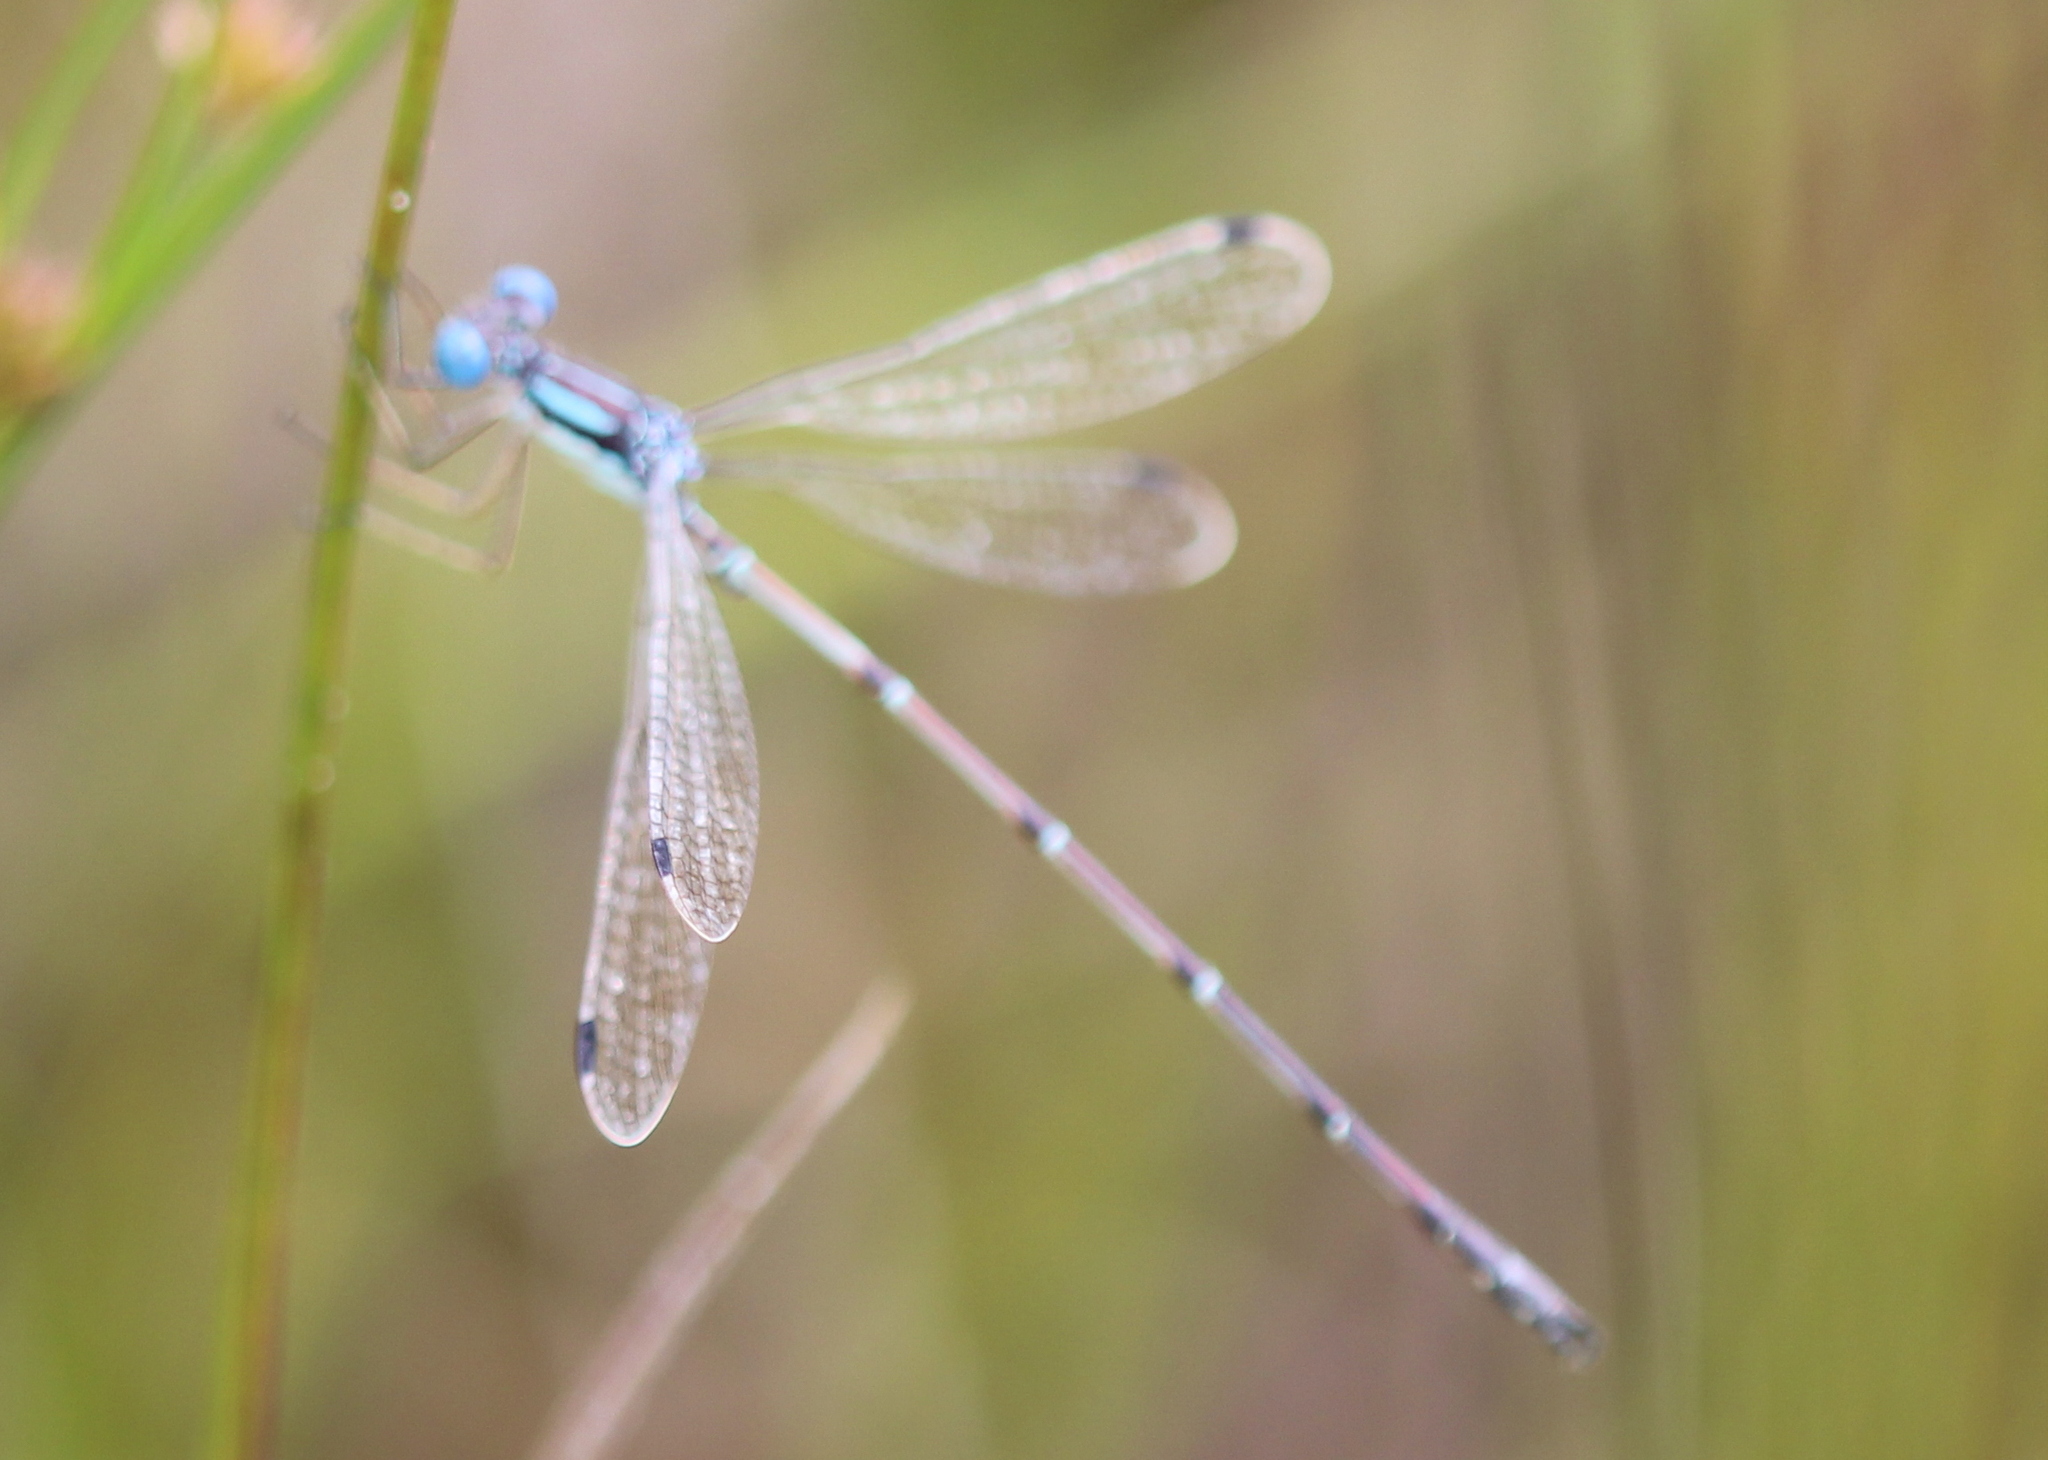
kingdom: Animalia
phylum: Arthropoda
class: Insecta
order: Odonata
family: Lestidae
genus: Lestes
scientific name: Lestes rectangularis
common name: Slender spreadwing
